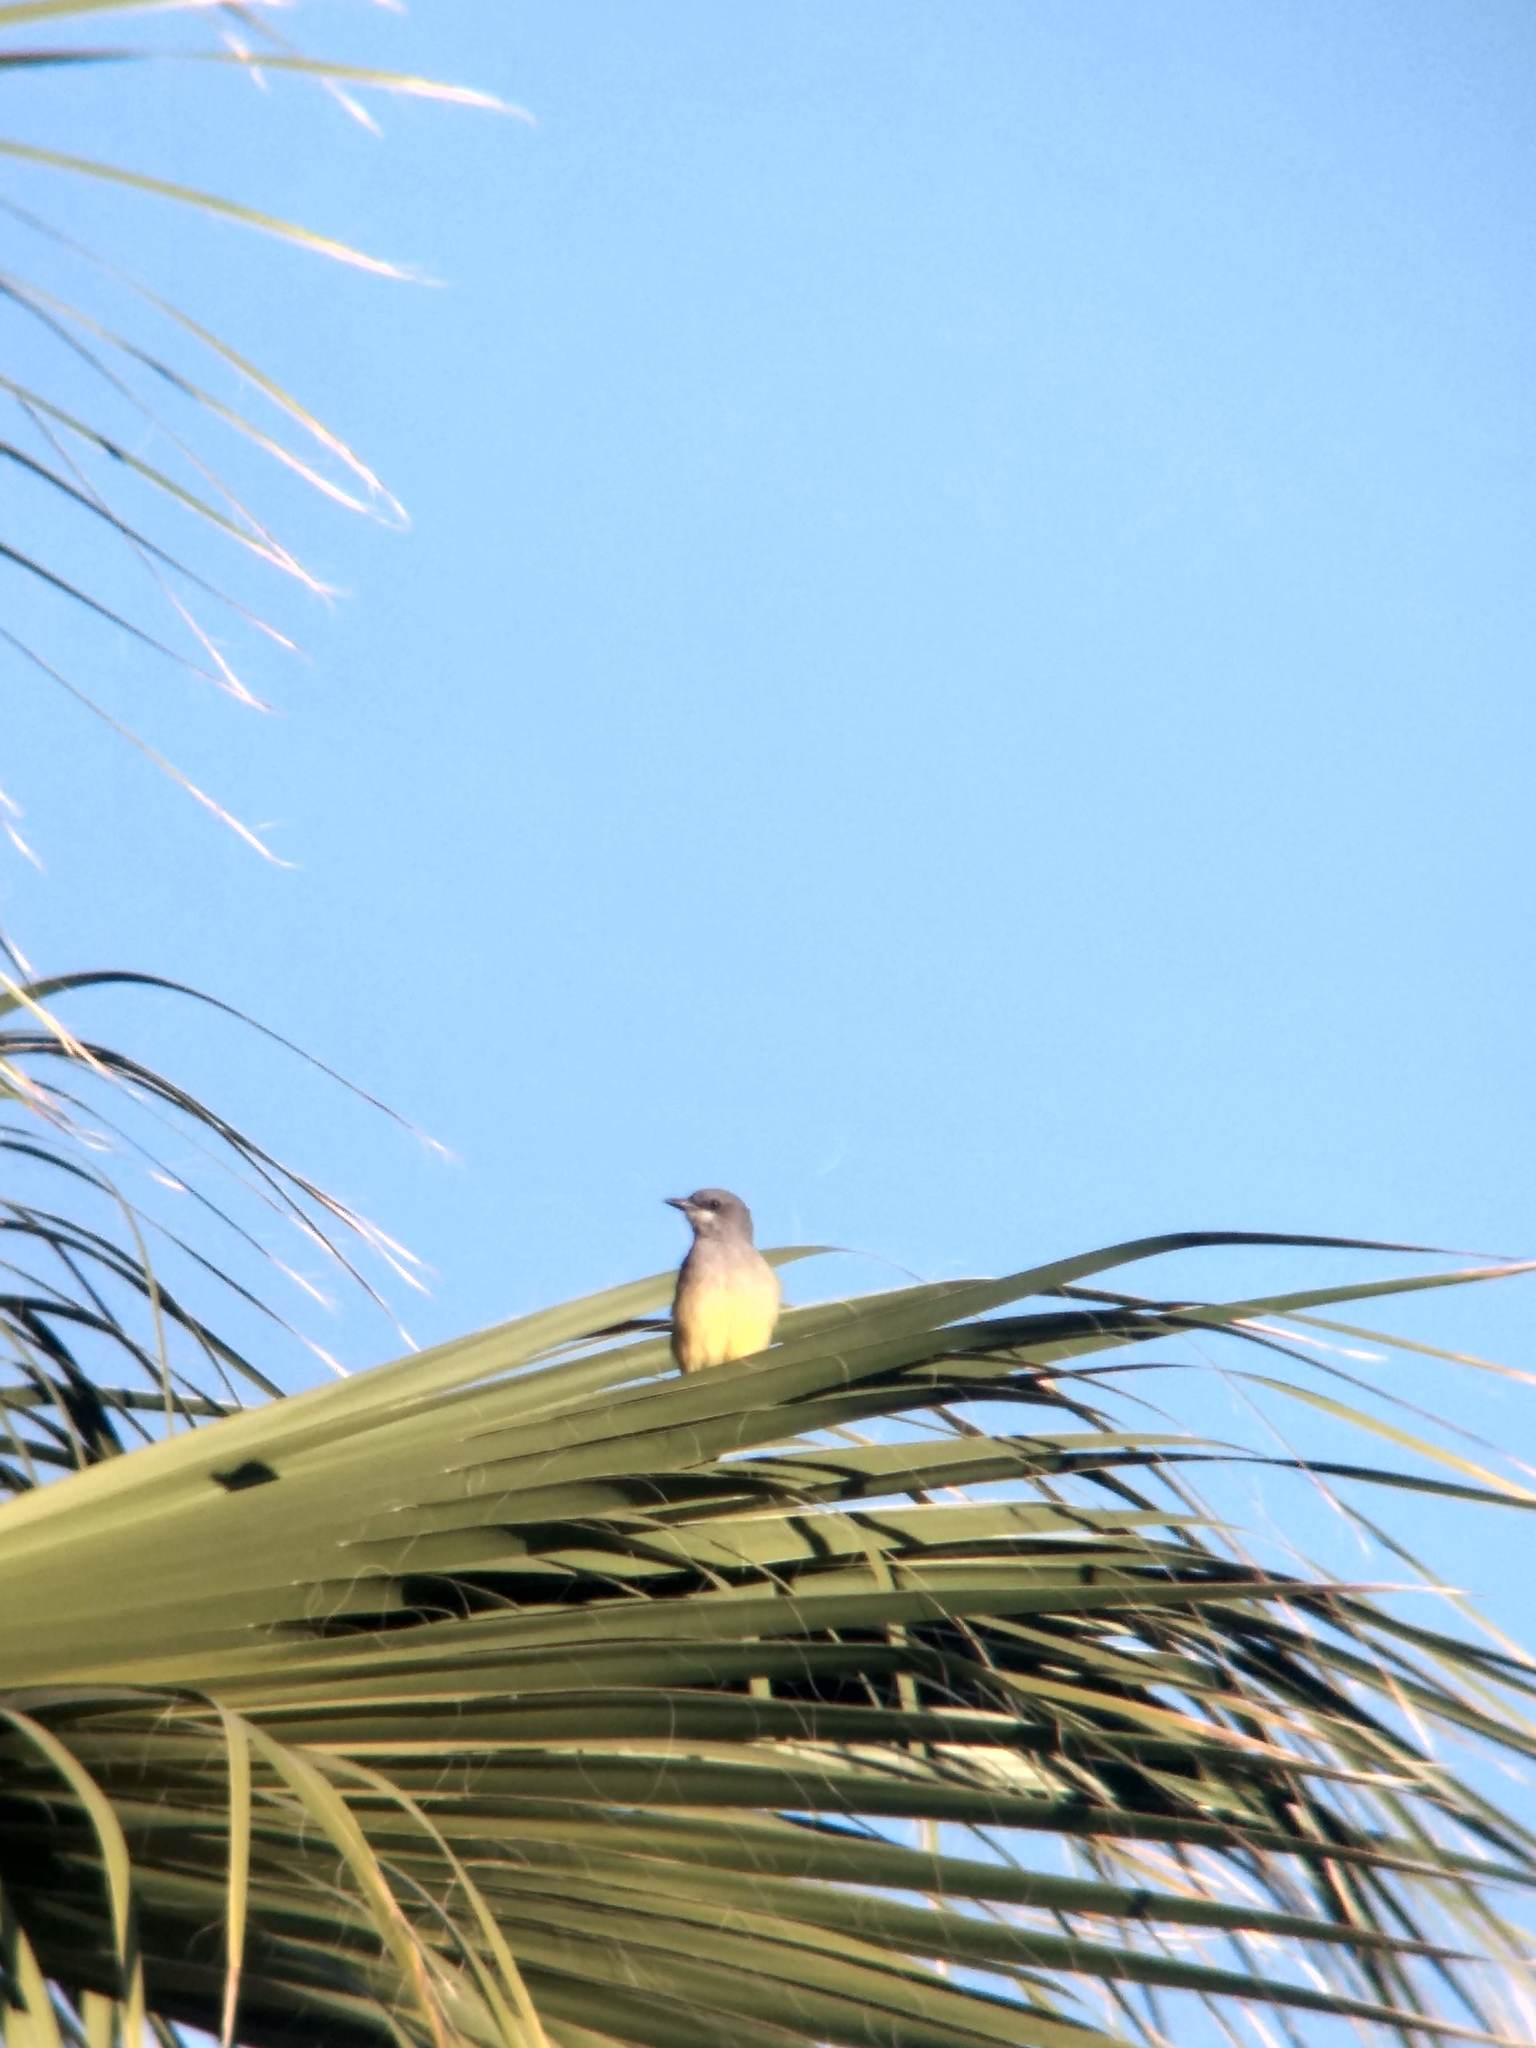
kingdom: Animalia
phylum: Chordata
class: Aves
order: Passeriformes
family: Tyrannidae
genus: Tyrannus
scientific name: Tyrannus vociferans
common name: Cassin's kingbird
